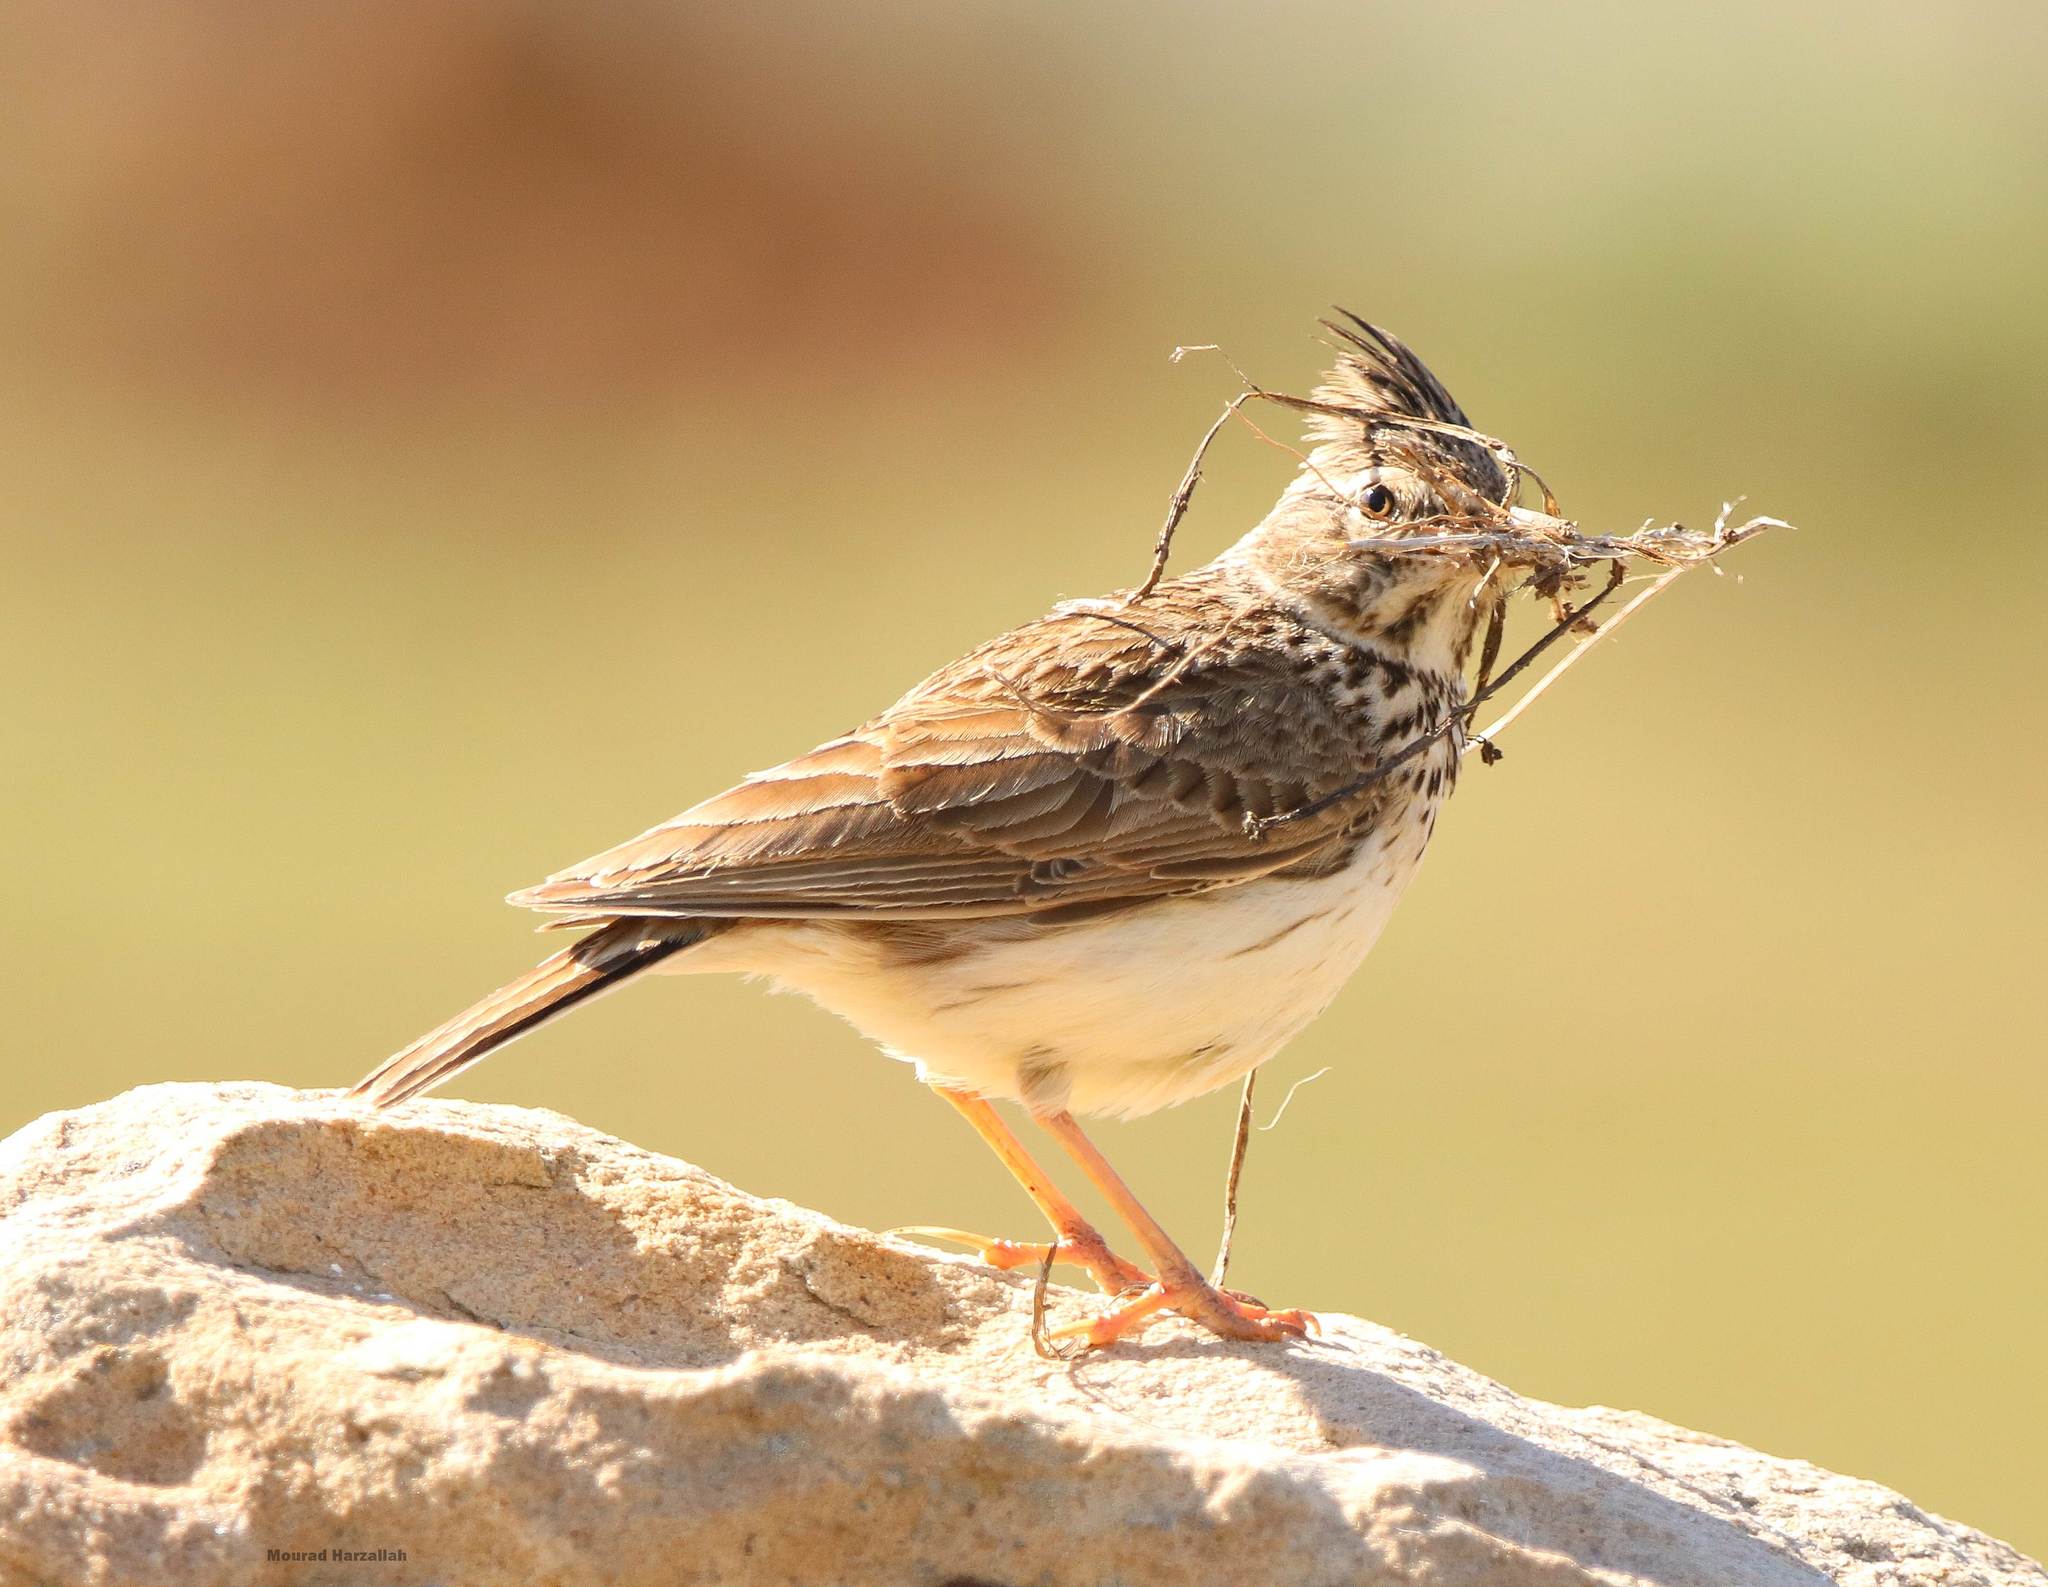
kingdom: Animalia
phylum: Chordata
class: Aves
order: Passeriformes
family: Alaudidae
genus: Galerida
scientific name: Galerida cristata
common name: Crested lark
